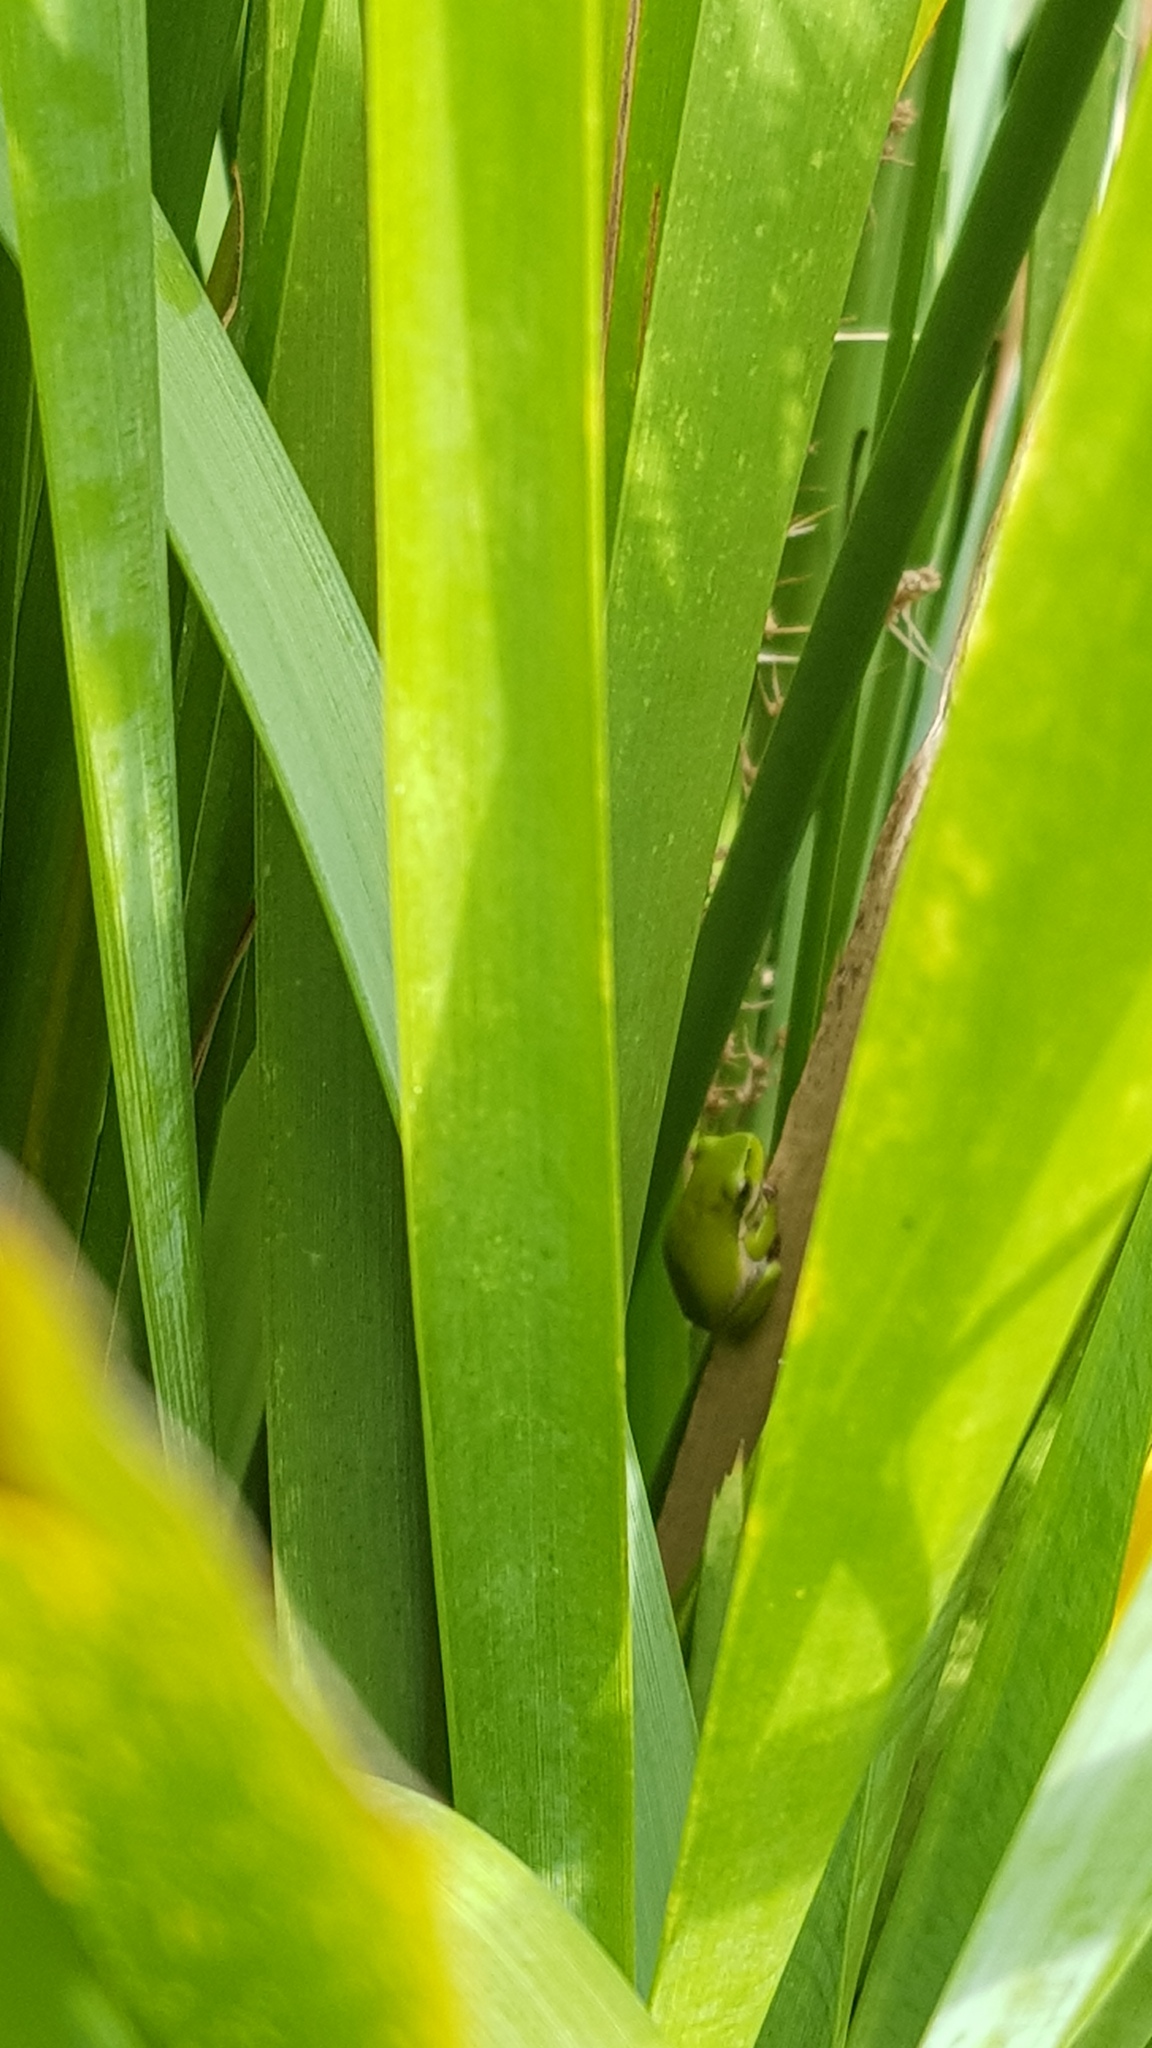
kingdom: Animalia
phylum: Chordata
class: Amphibia
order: Anura
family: Pelodryadidae
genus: Litoria
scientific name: Litoria fallax
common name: Eastern dwarf treefrog
